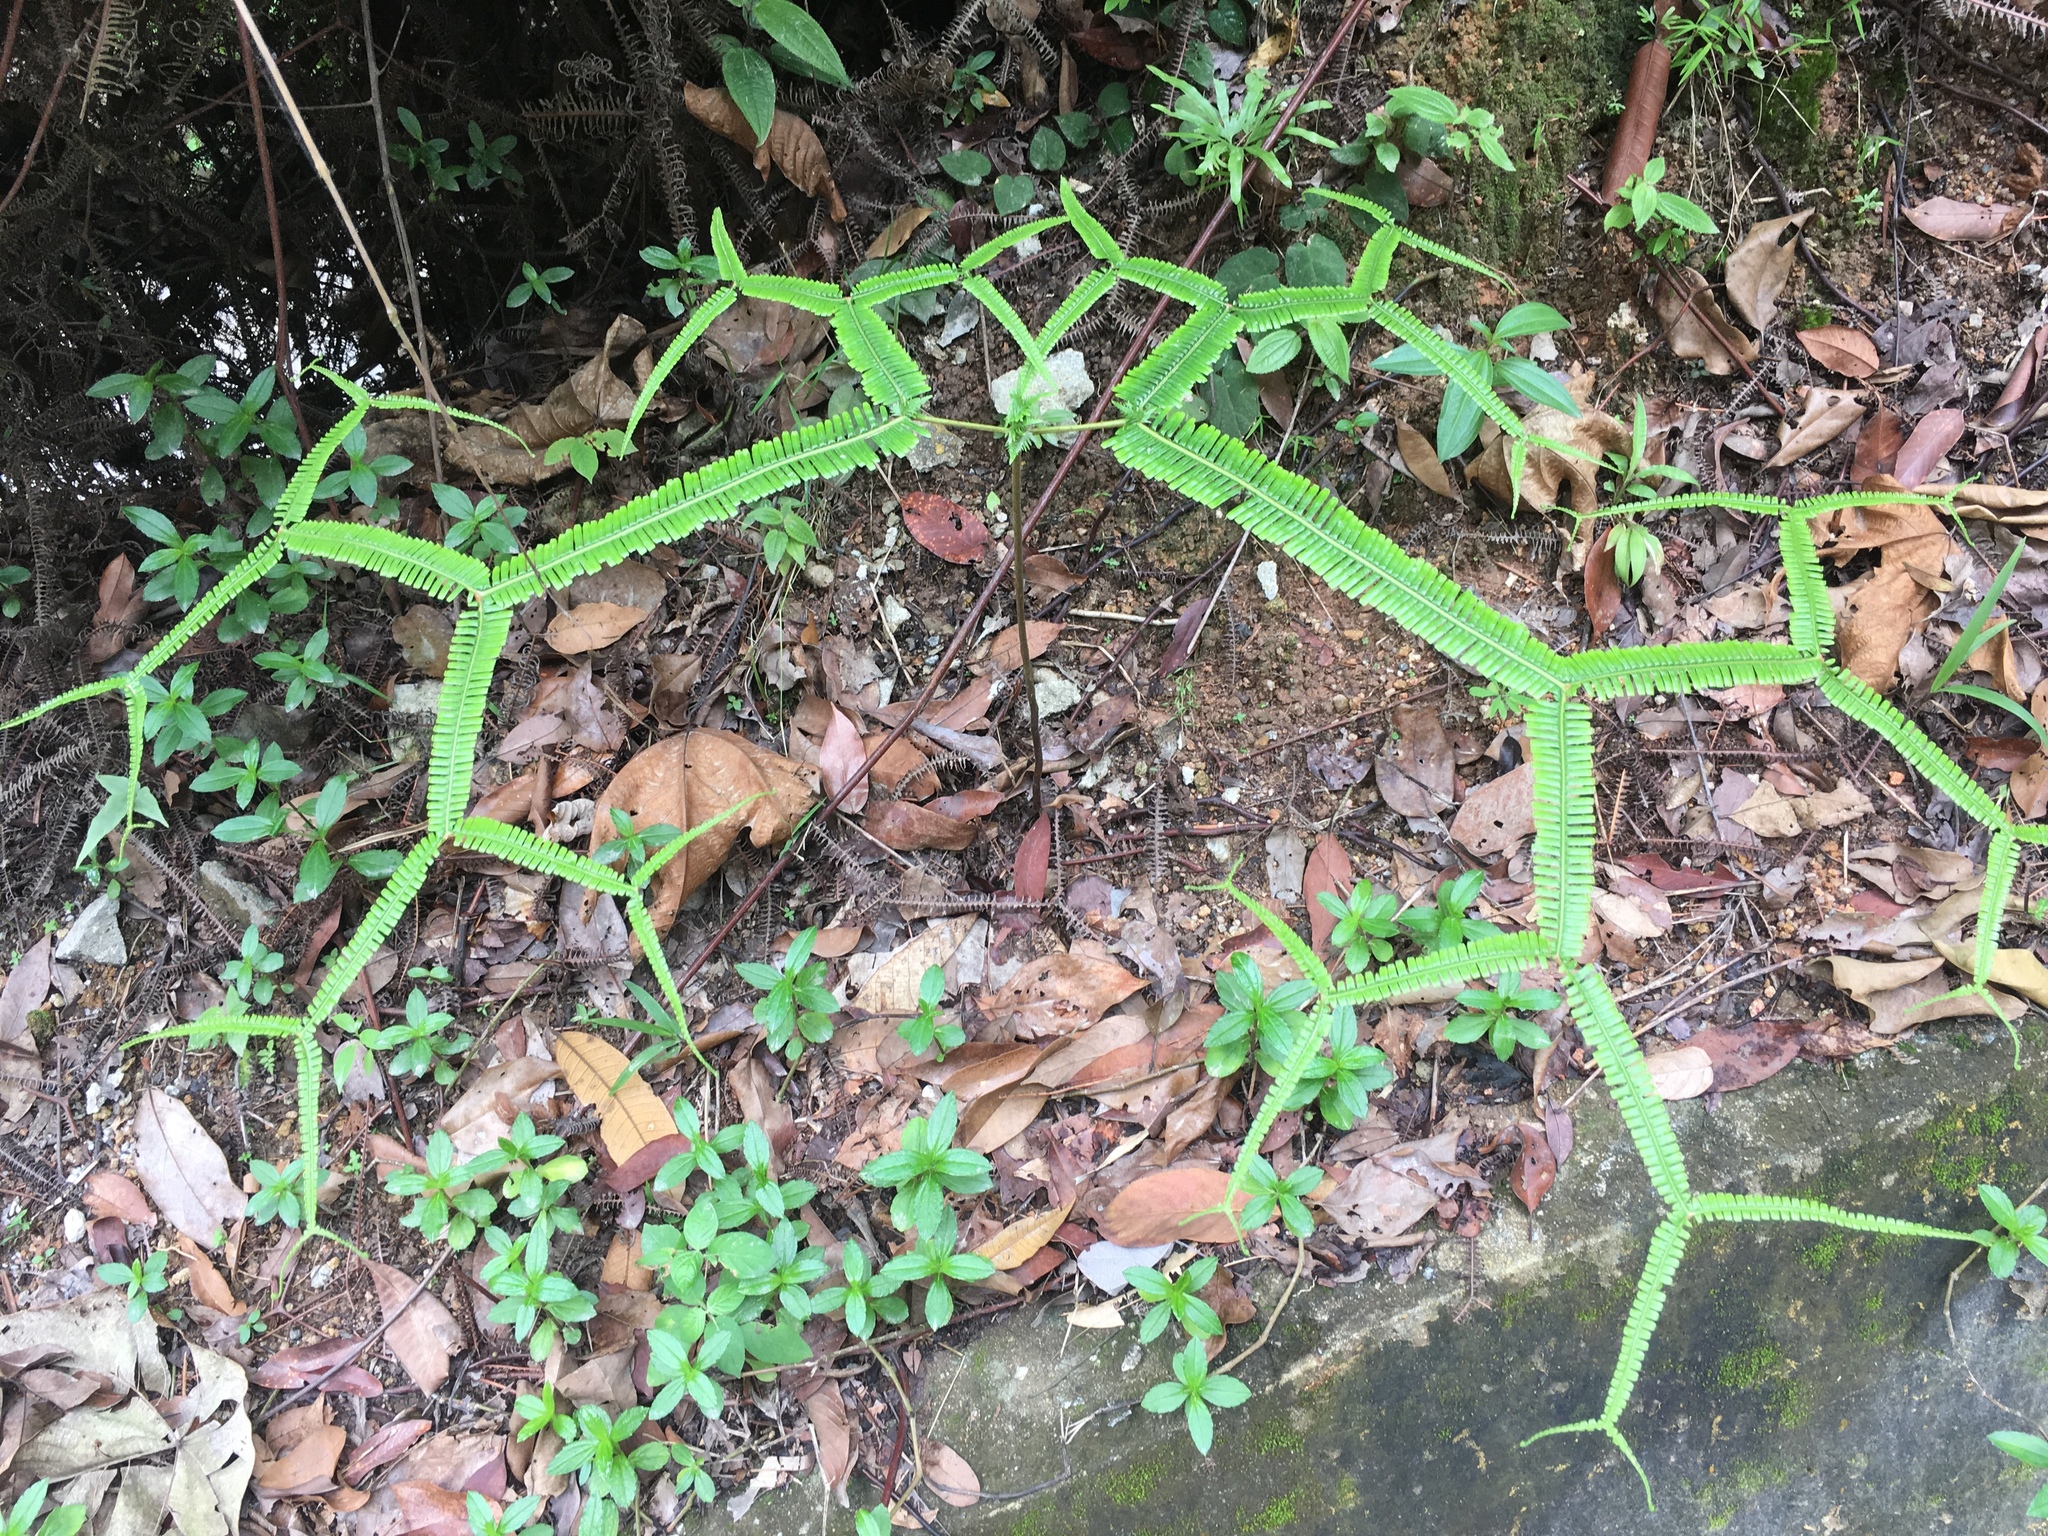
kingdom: Plantae
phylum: Tracheophyta
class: Polypodiopsida
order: Gleicheniales
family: Gleicheniaceae
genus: Sticherus
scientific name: Sticherus truncatus
